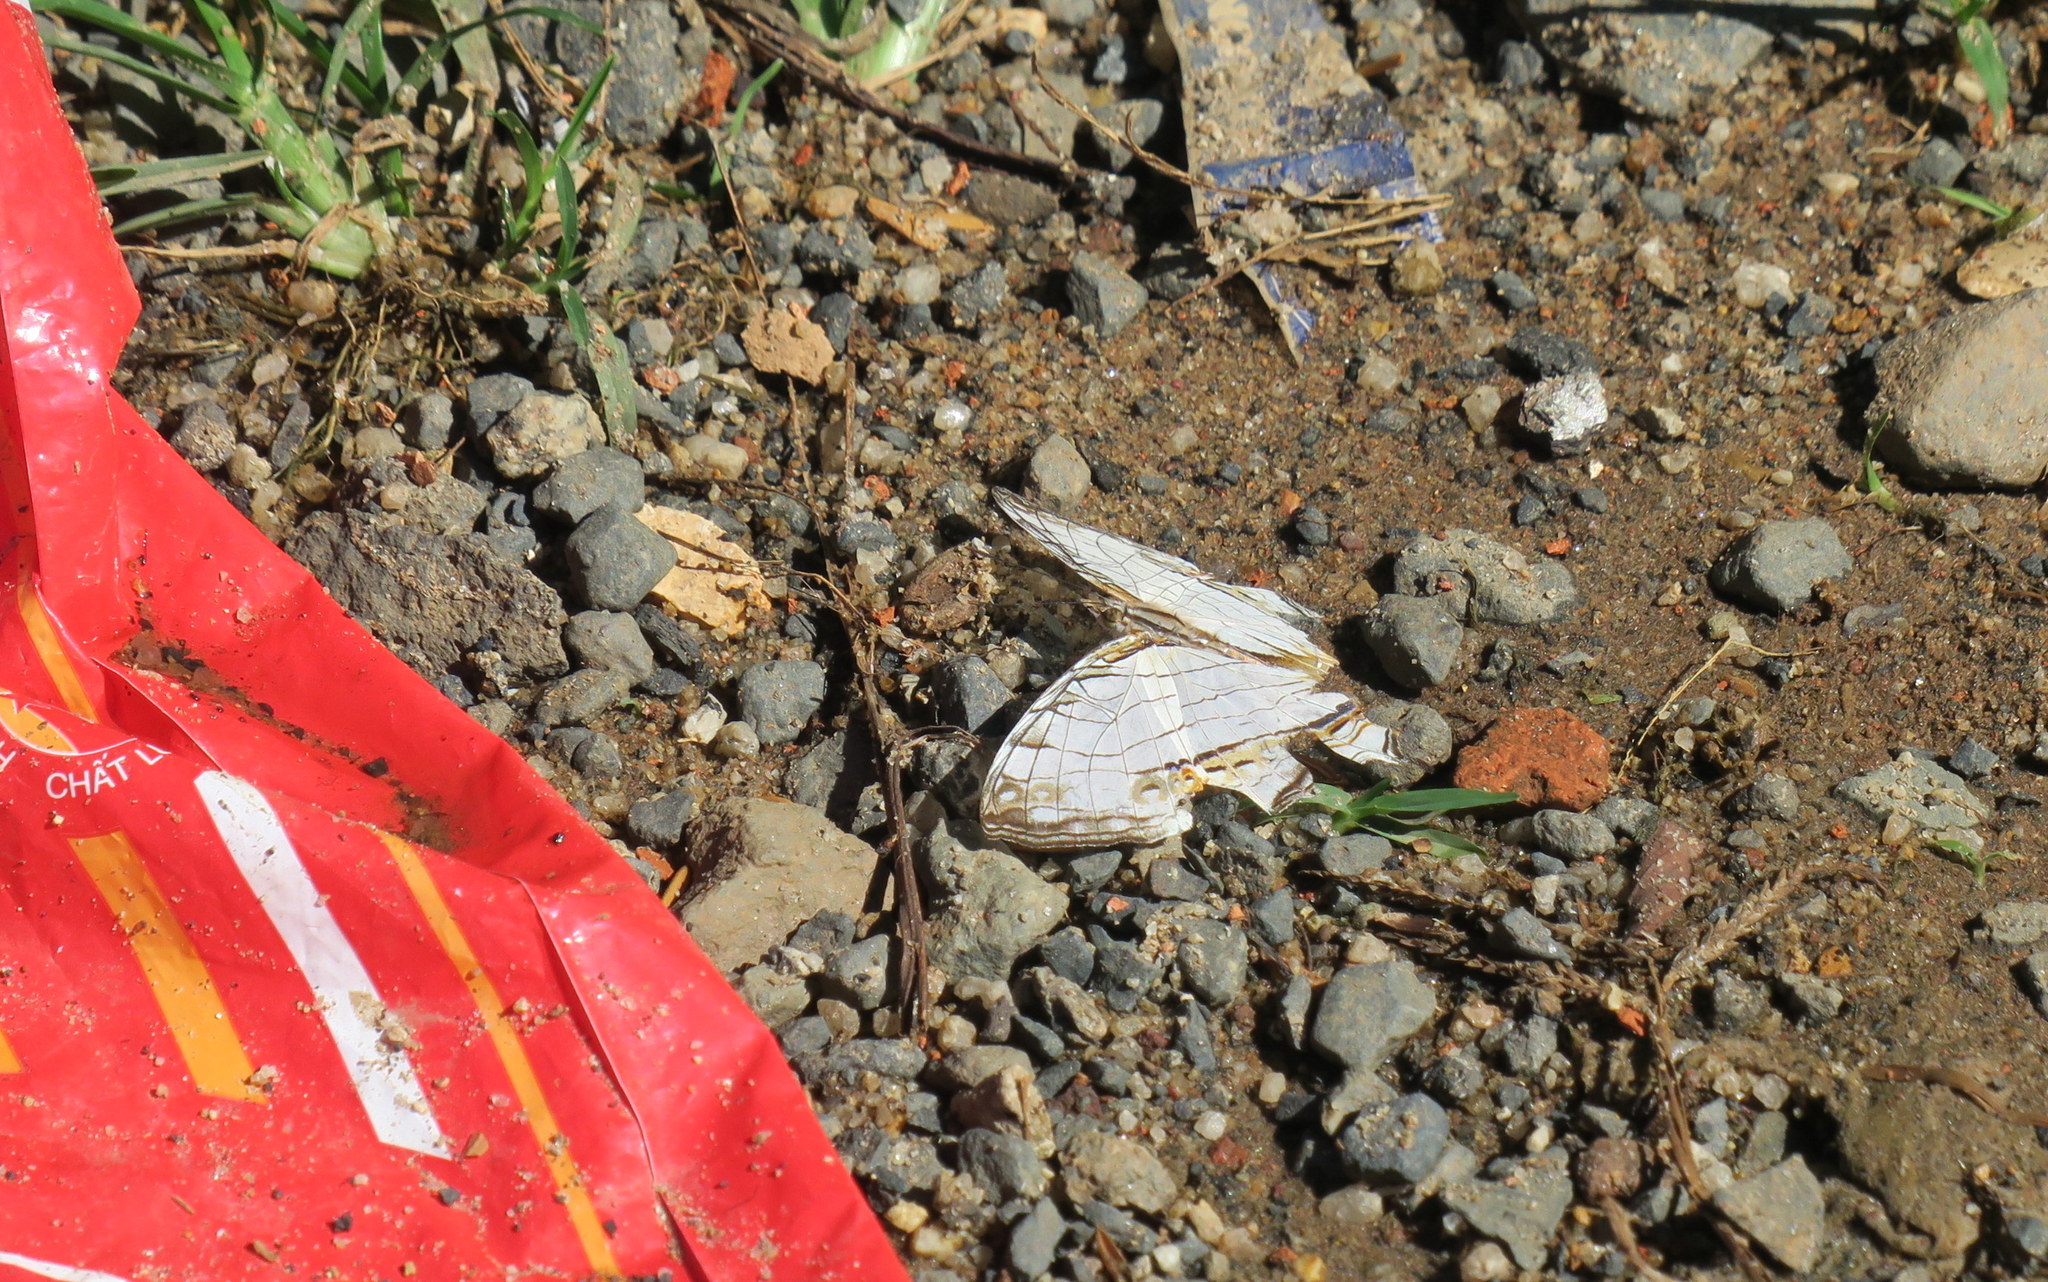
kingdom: Animalia
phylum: Arthropoda
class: Insecta
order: Lepidoptera
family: Nymphalidae
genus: Cyrestis
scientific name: Cyrestis thyodamas
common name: Common mapwing
